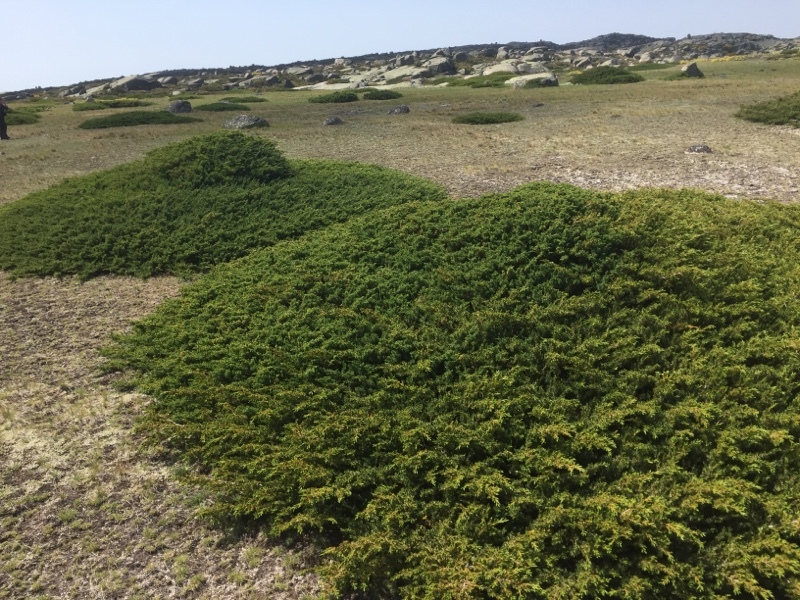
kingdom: Plantae
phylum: Tracheophyta
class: Pinopsida
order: Pinales
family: Cupressaceae
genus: Juniperus
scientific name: Juniperus communis
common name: Common juniper
